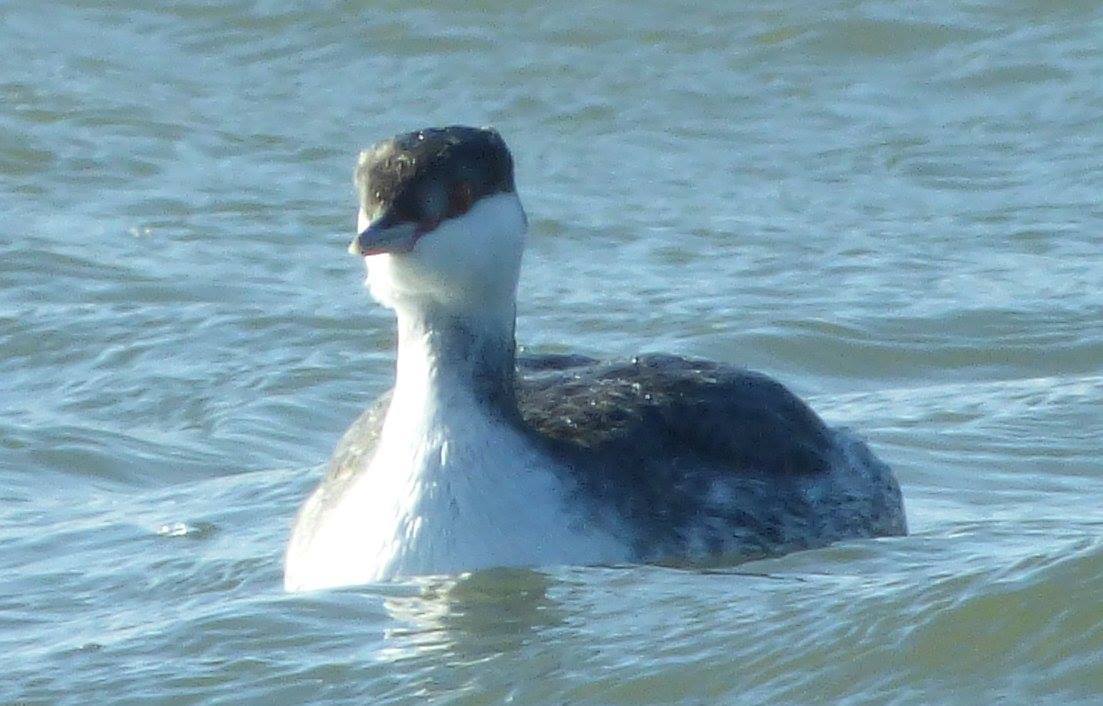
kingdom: Animalia
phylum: Chordata
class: Aves
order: Podicipediformes
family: Podicipedidae
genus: Podiceps
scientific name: Podiceps auritus
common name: Horned grebe
